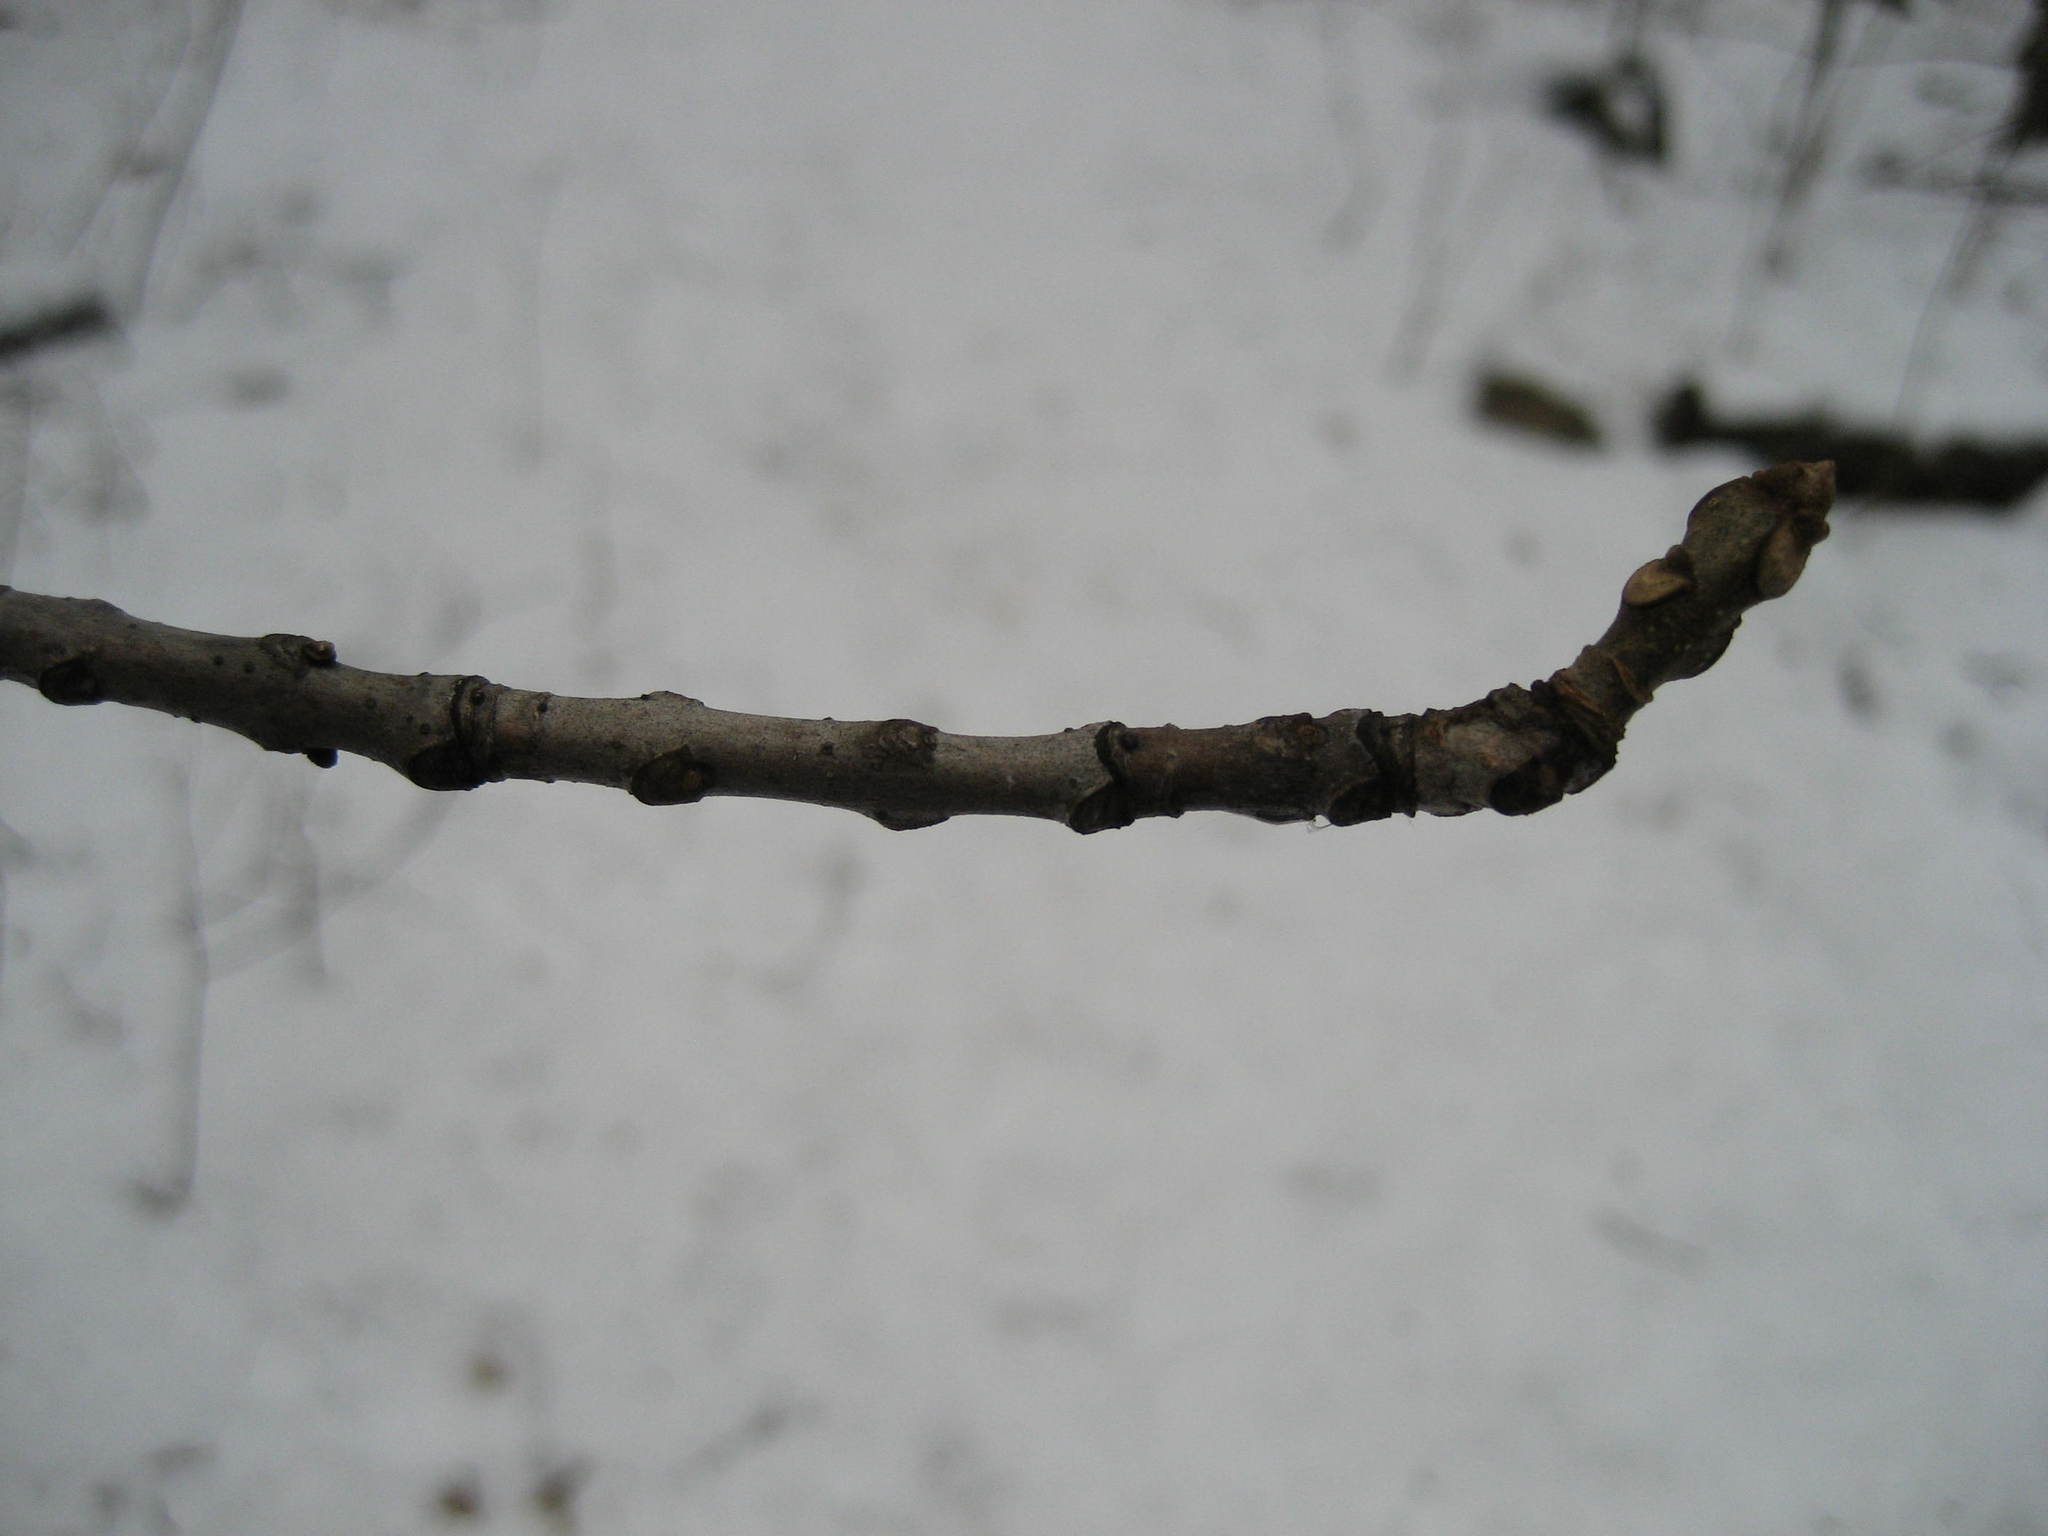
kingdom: Plantae
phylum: Tracheophyta
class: Magnoliopsida
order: Lamiales
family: Oleaceae
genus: Fraxinus
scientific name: Fraxinus americana
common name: White ash
